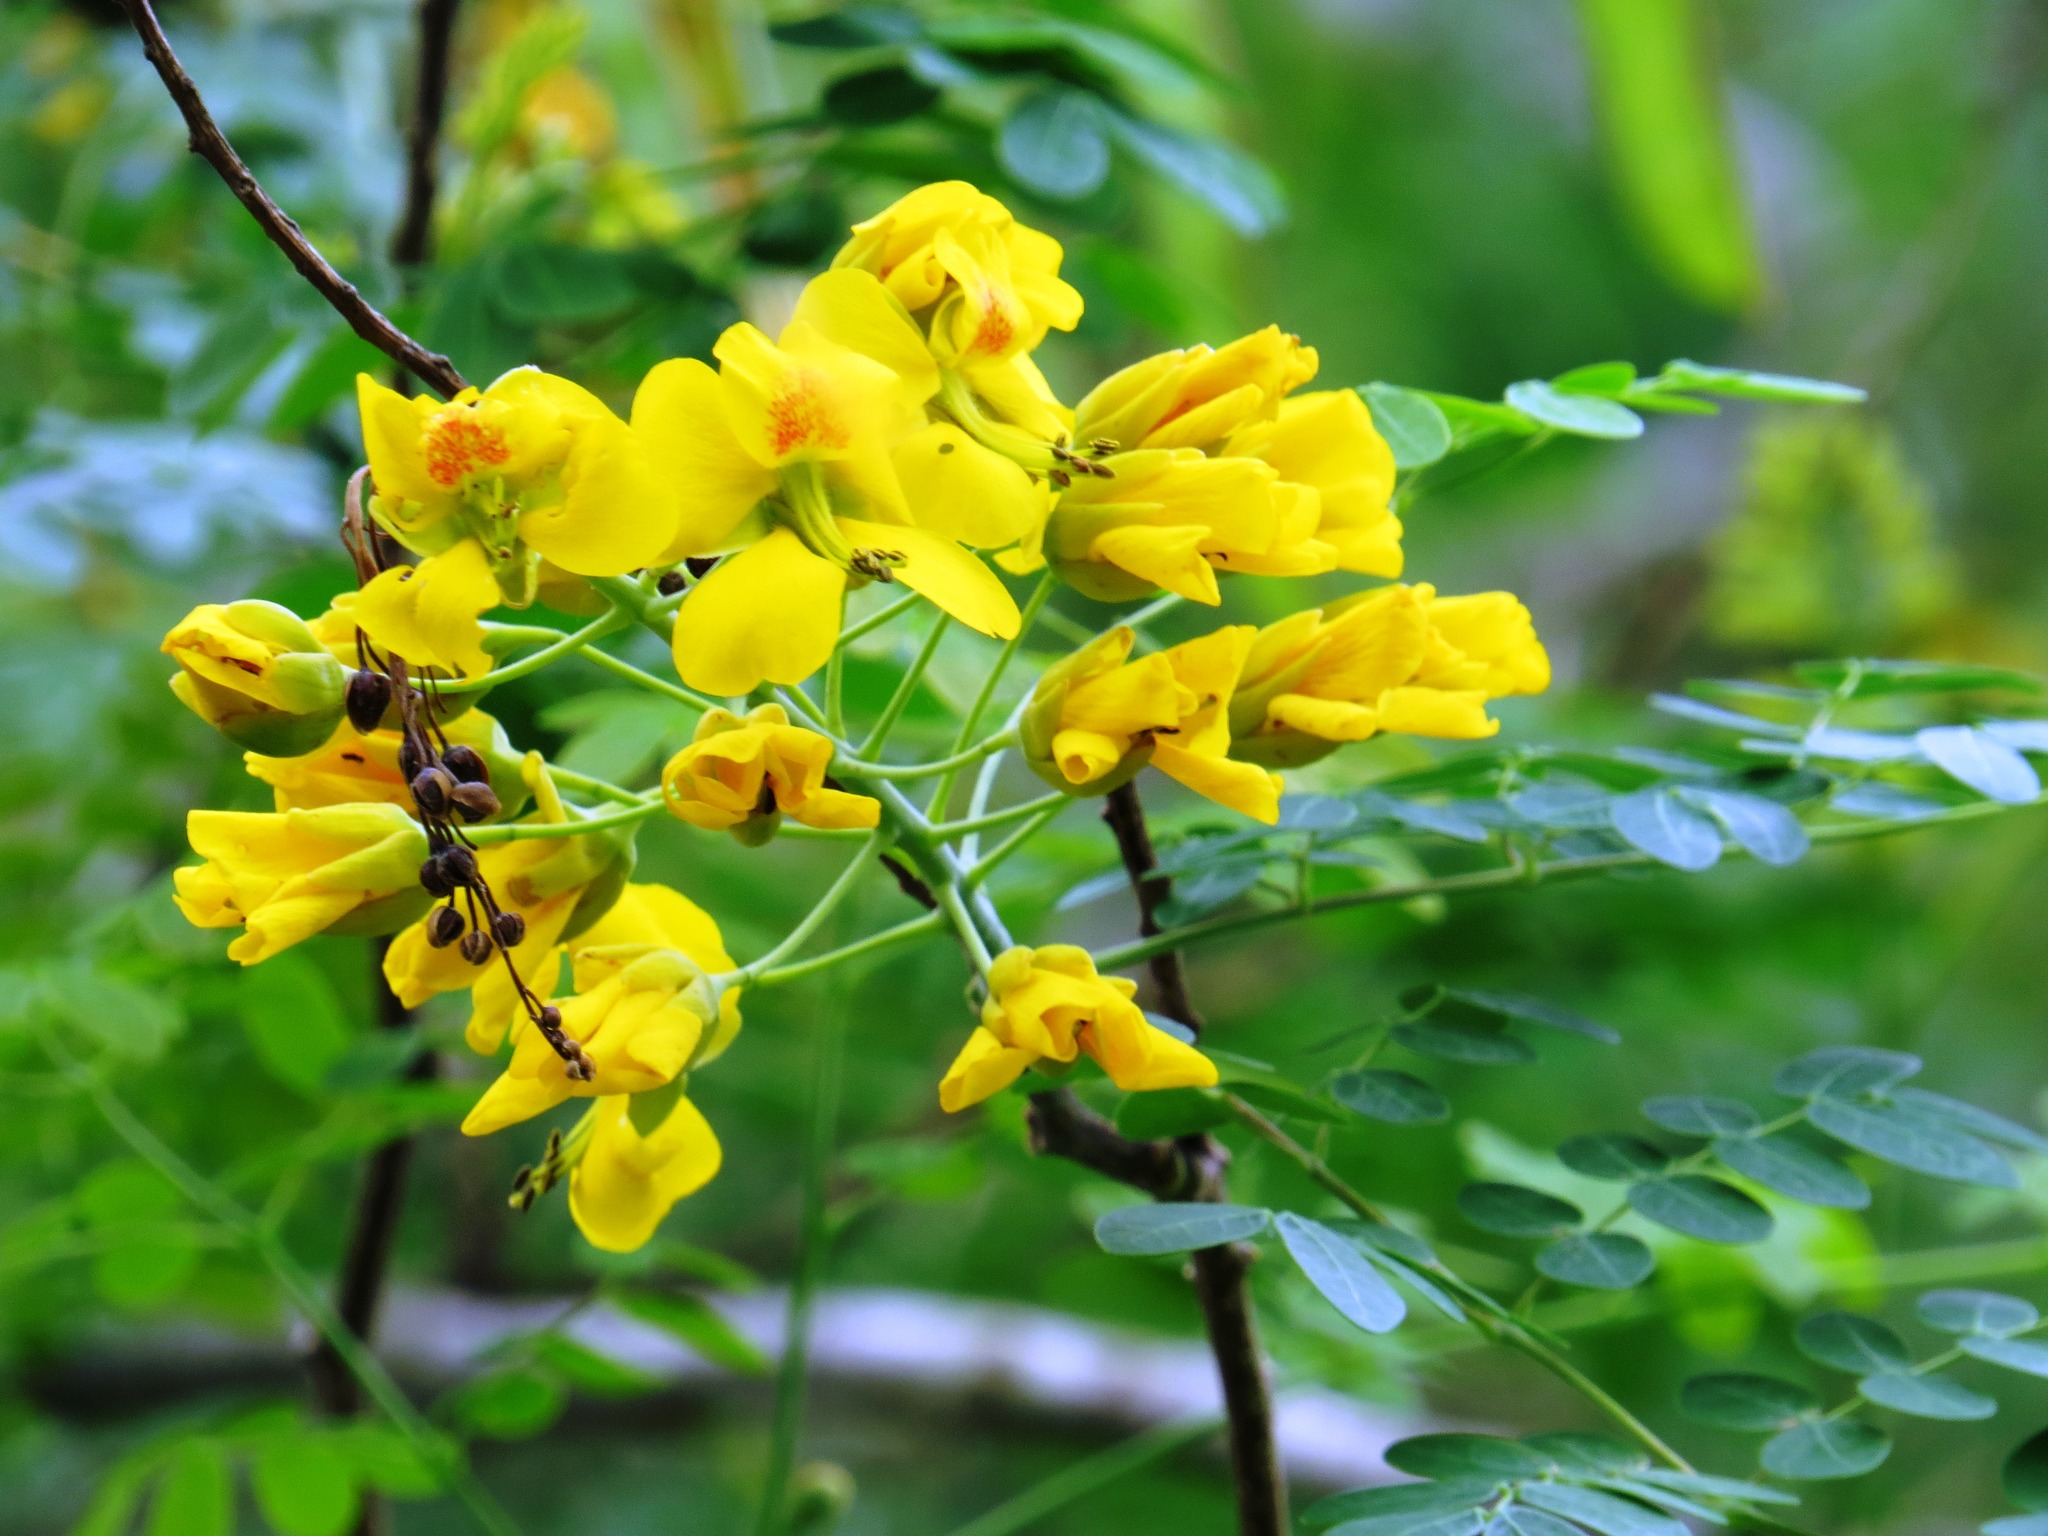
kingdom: Plantae
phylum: Tracheophyta
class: Magnoliopsida
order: Fabales
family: Fabaceae
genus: Erythrostemon
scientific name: Erythrostemon mexicanus
